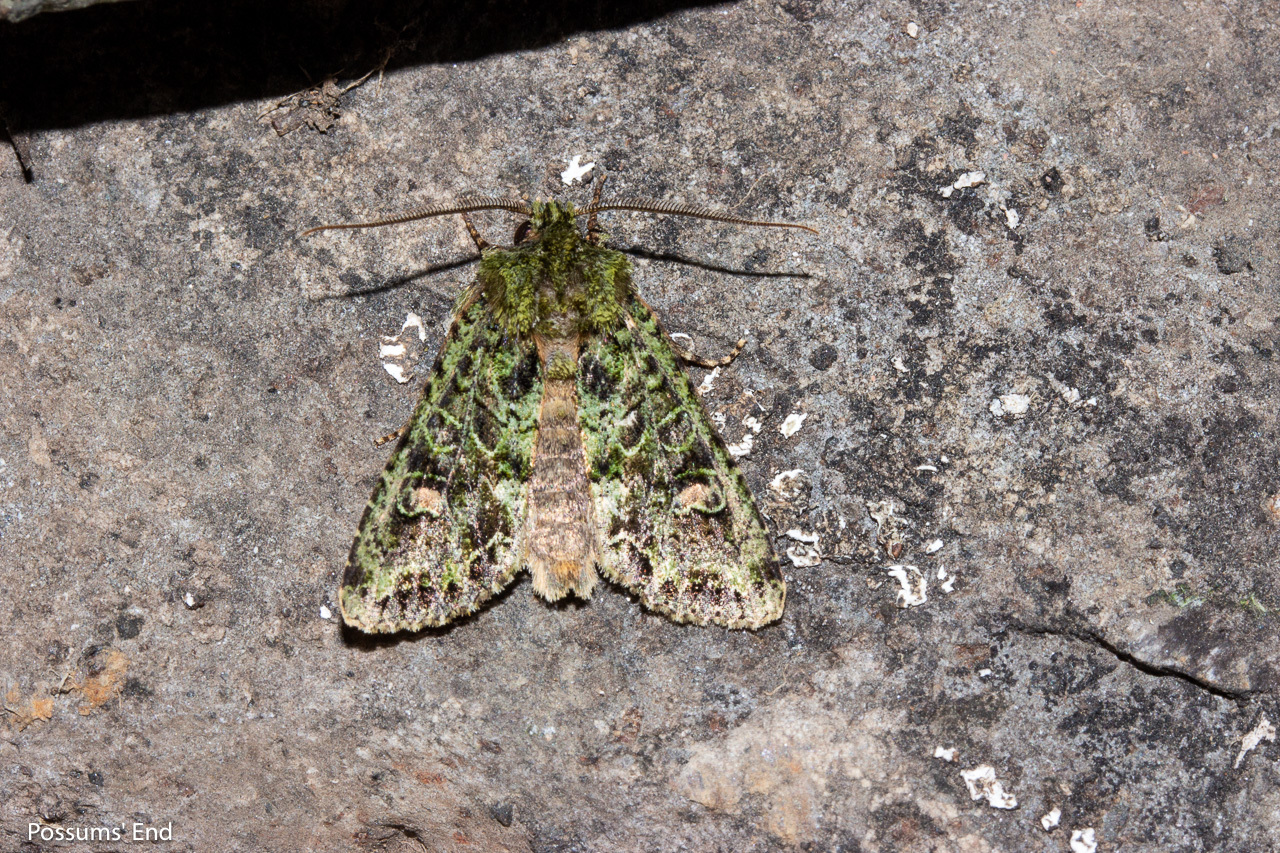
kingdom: Animalia
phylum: Arthropoda
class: Insecta
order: Lepidoptera
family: Noctuidae
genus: Ichneutica
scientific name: Ichneutica
